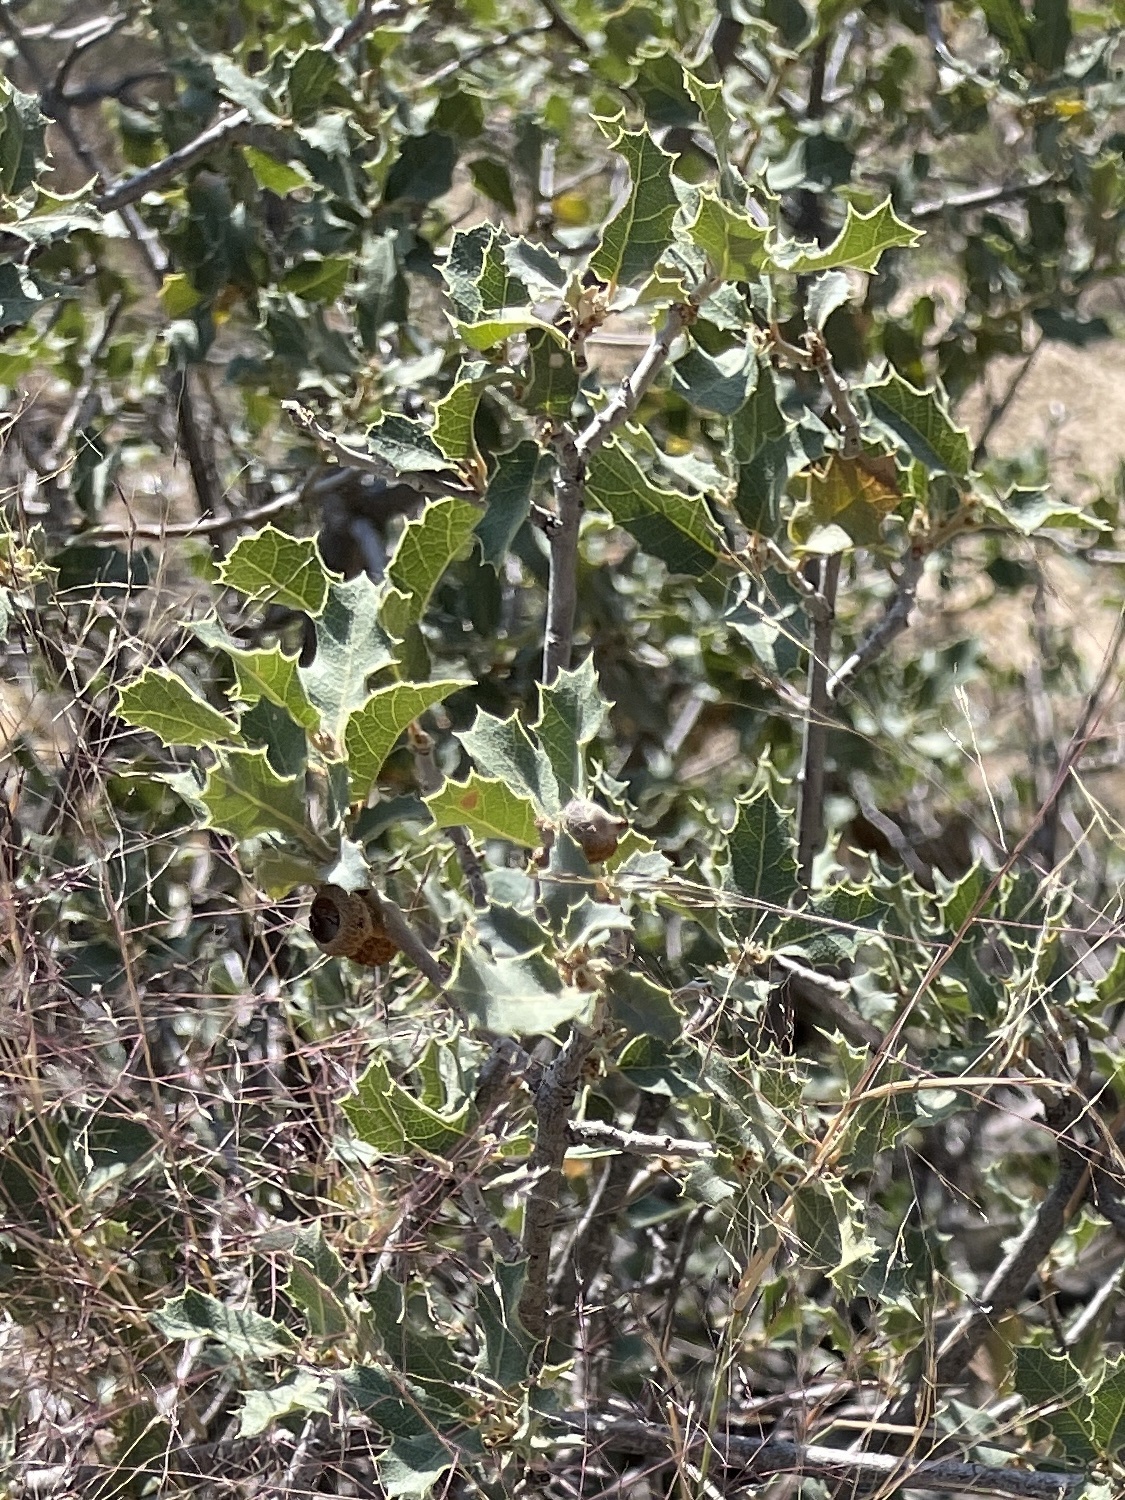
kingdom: Plantae
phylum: Tracheophyta
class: Magnoliopsida
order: Fagales
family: Fagaceae
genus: Quercus
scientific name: Quercus turbinella
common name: Sonoran scrub oak
